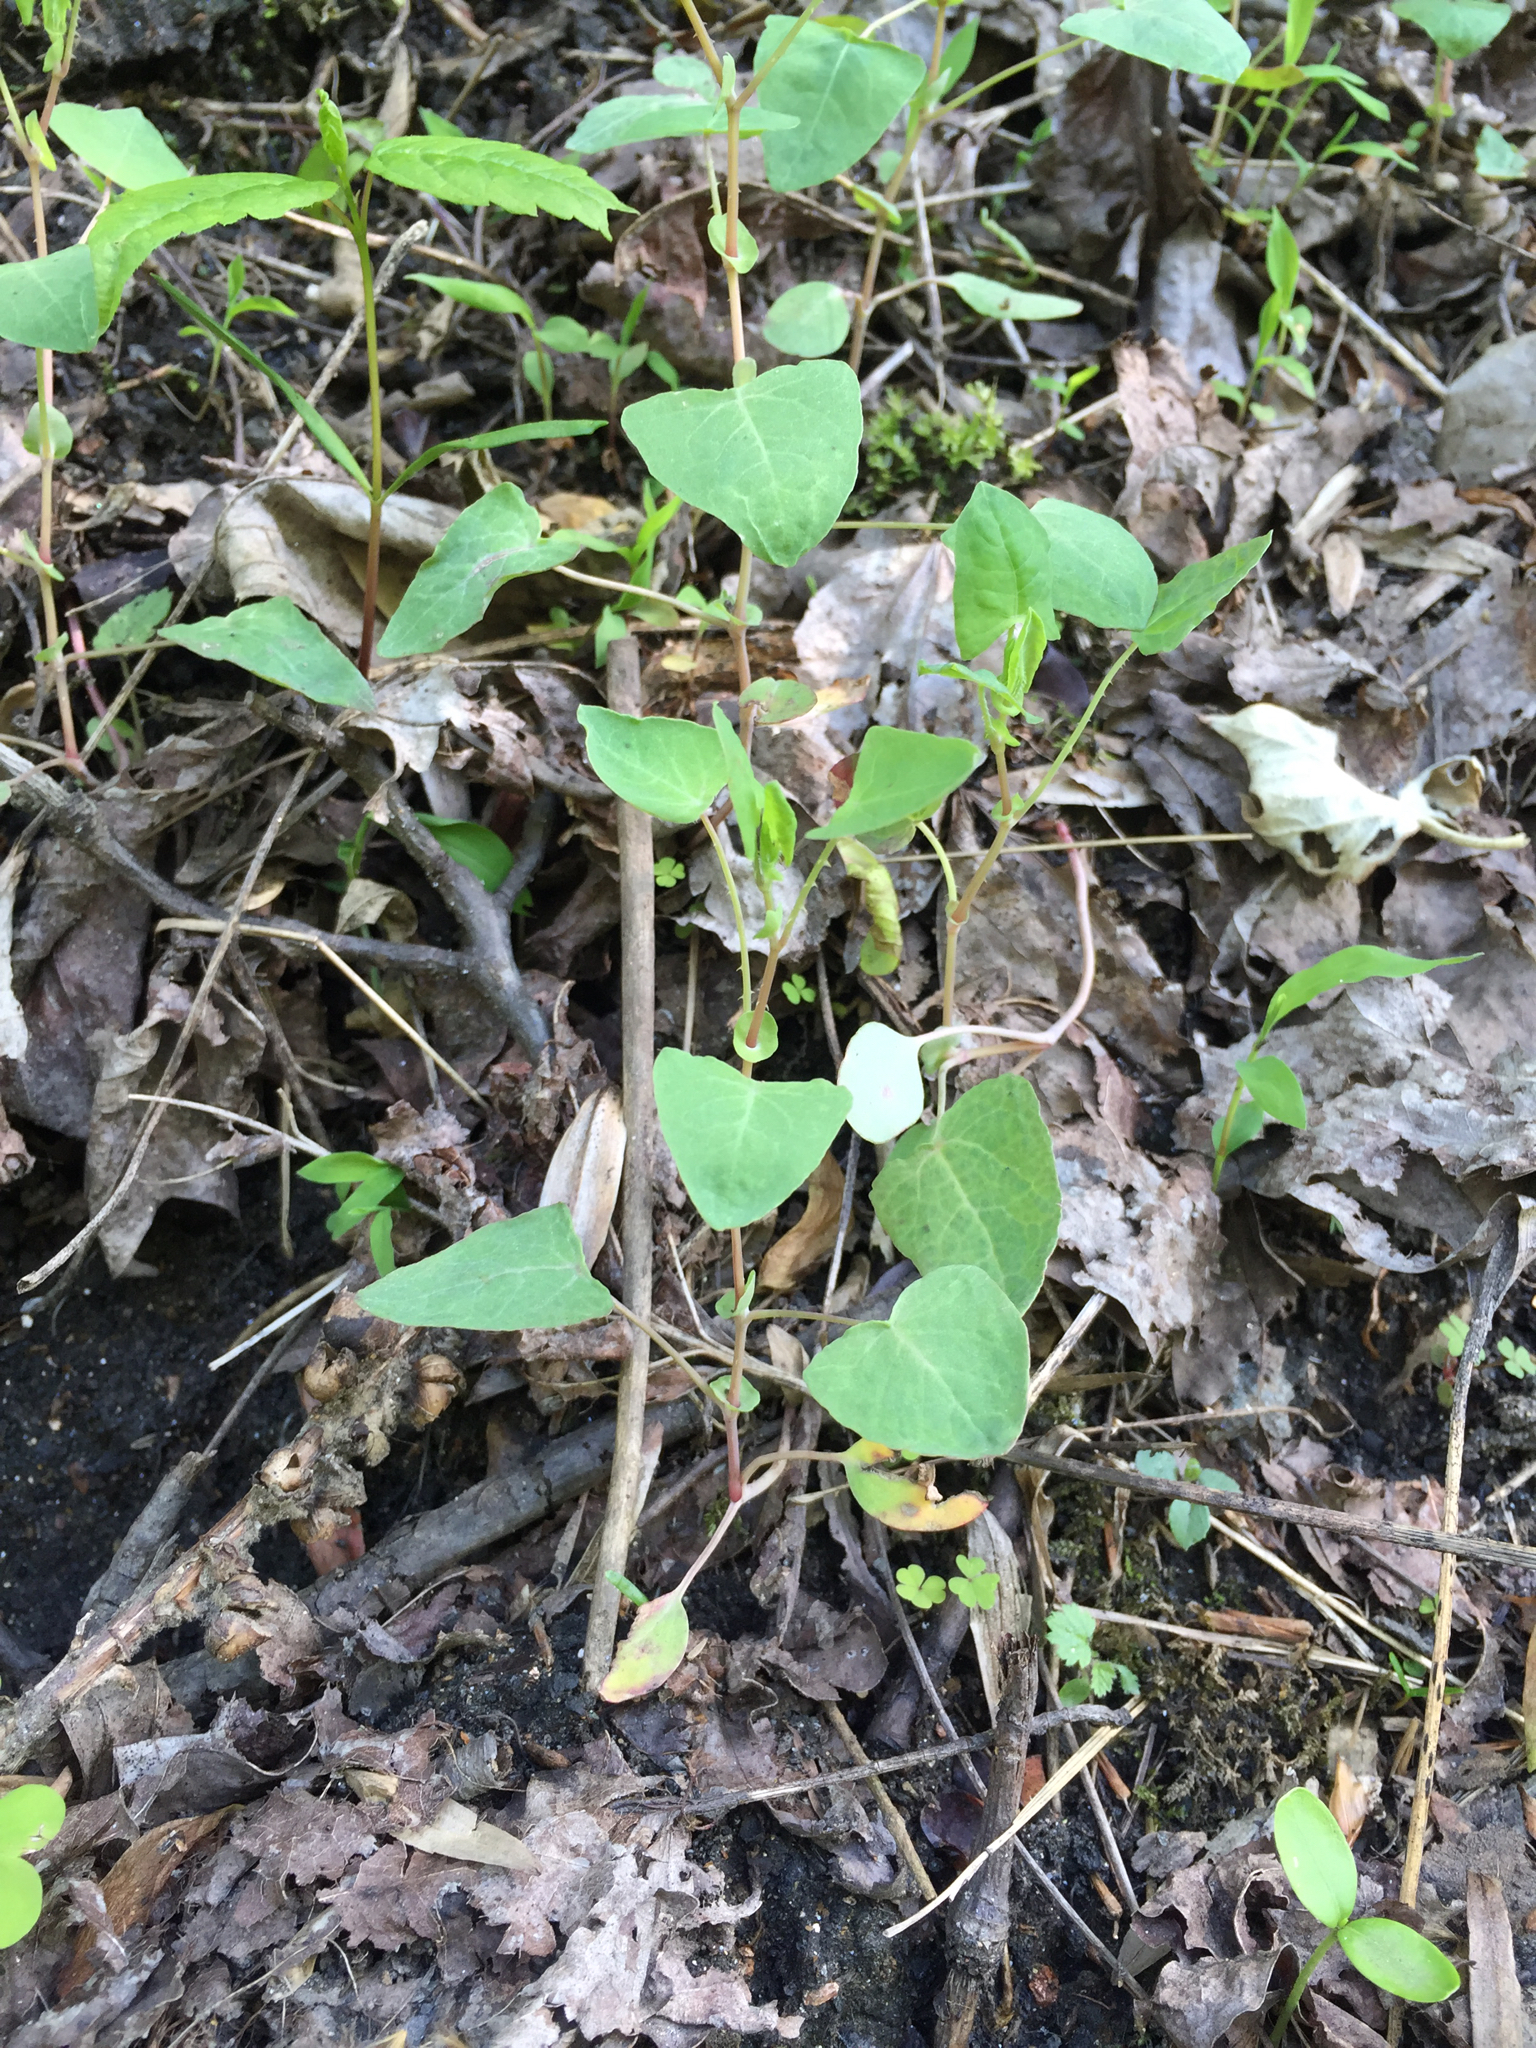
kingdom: Plantae
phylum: Tracheophyta
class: Magnoliopsida
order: Caryophyllales
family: Polygonaceae
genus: Persicaria
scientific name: Persicaria perfoliata
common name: Asiatic tearthumb
